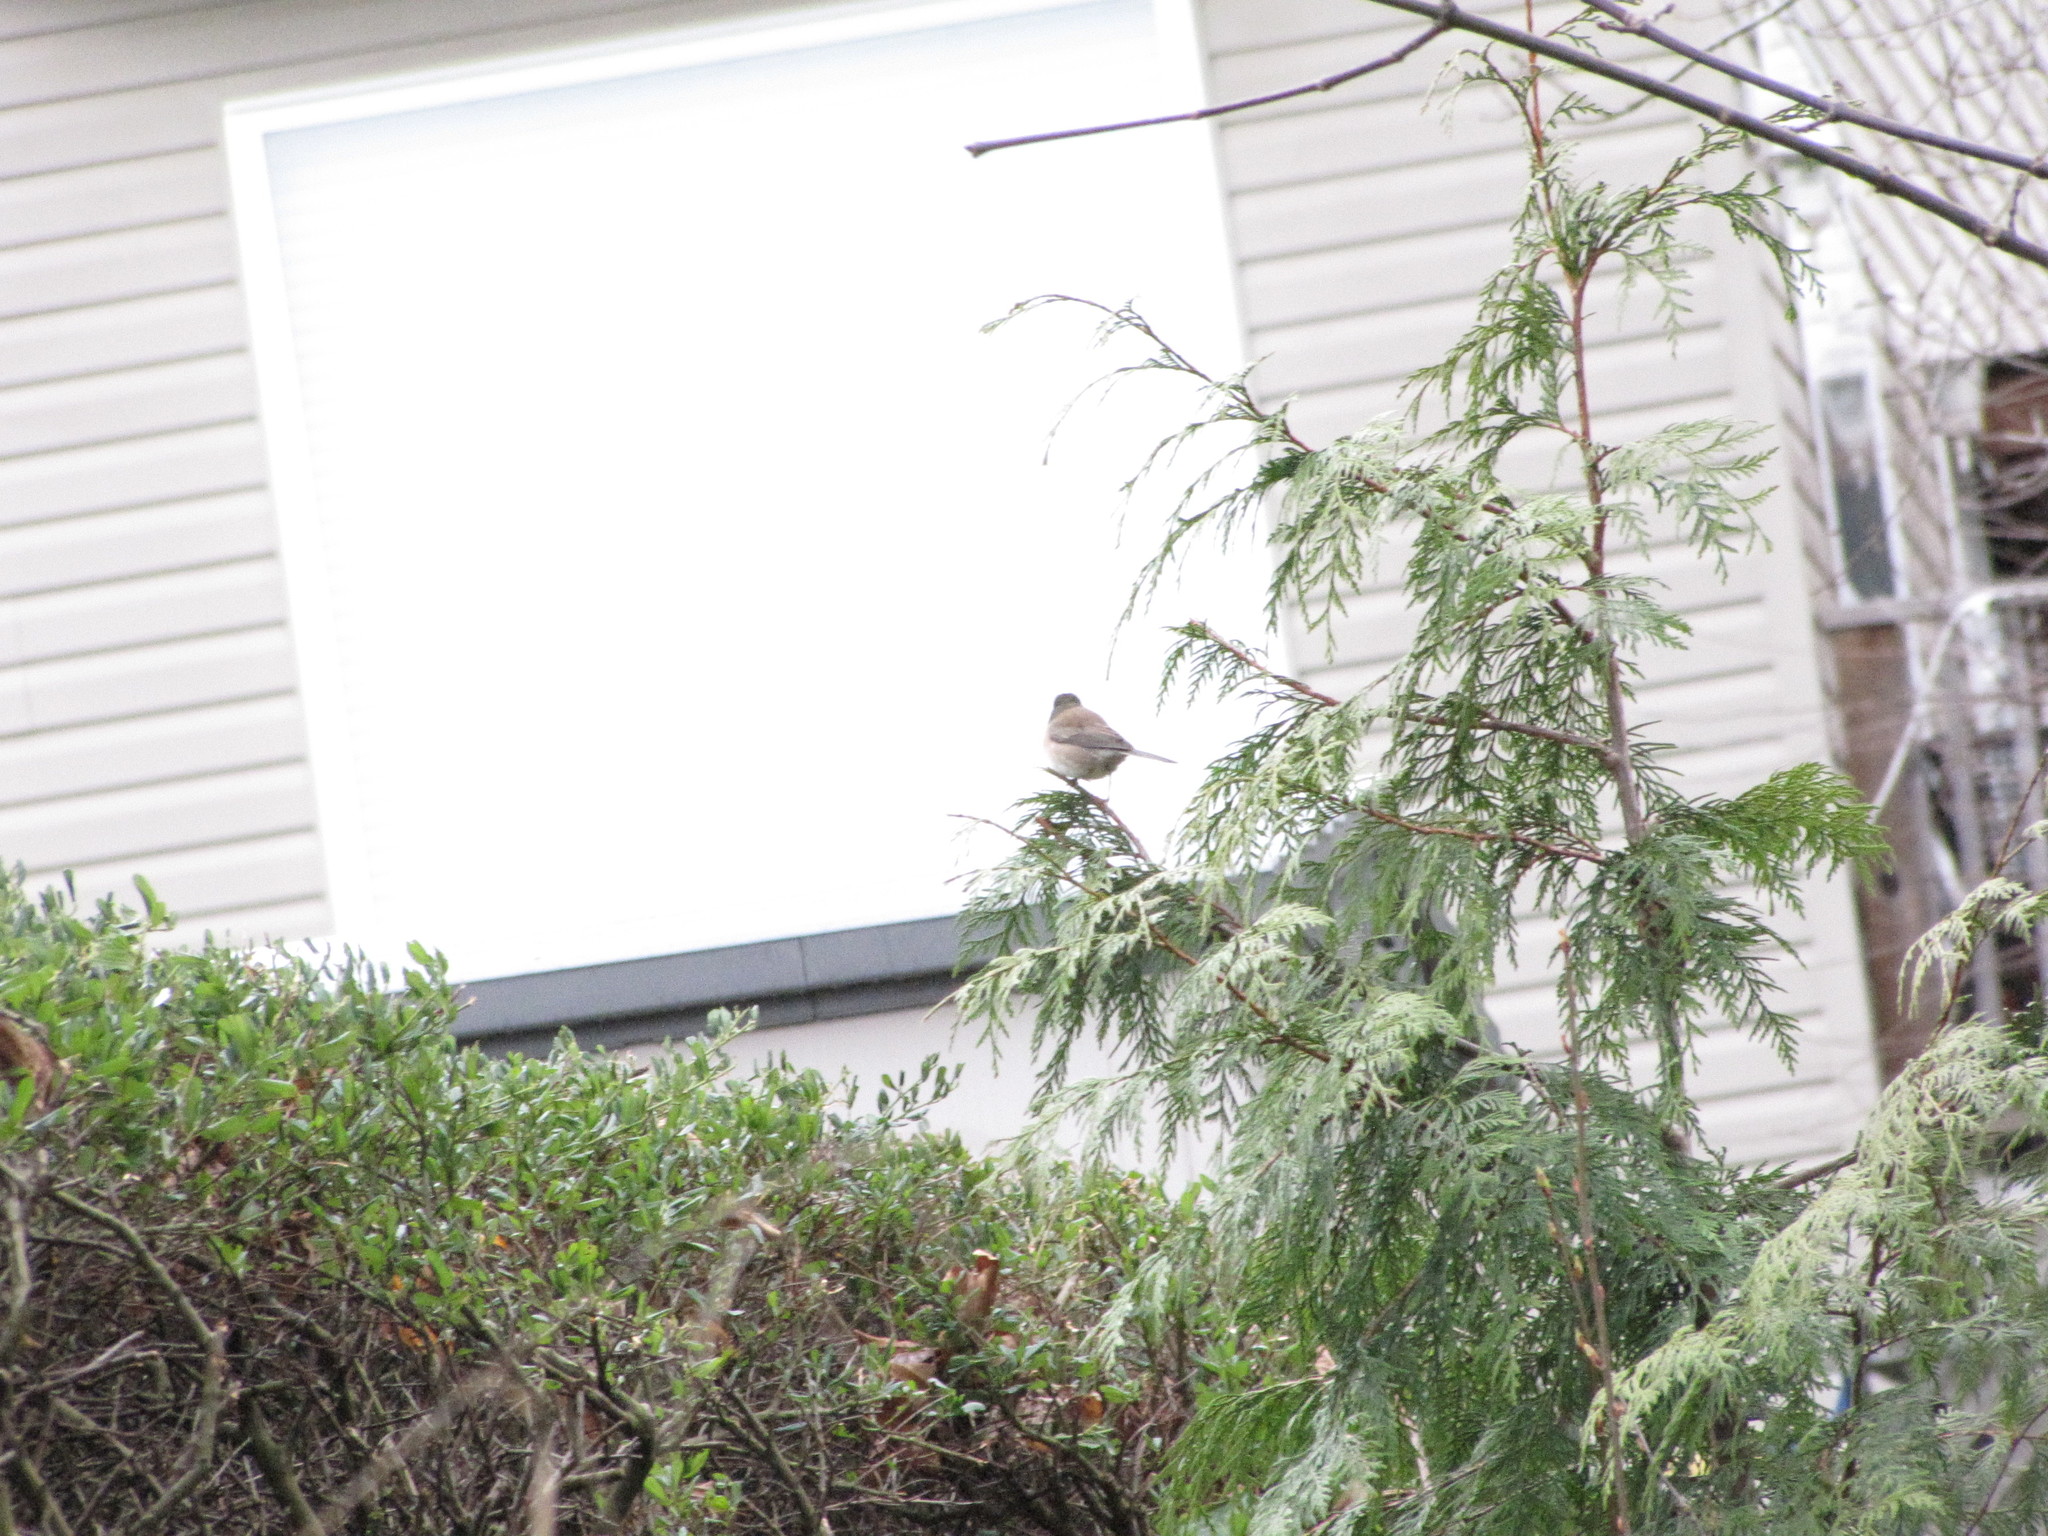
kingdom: Animalia
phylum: Chordata
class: Aves
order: Passeriformes
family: Passerellidae
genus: Junco
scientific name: Junco hyemalis
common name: Dark-eyed junco
